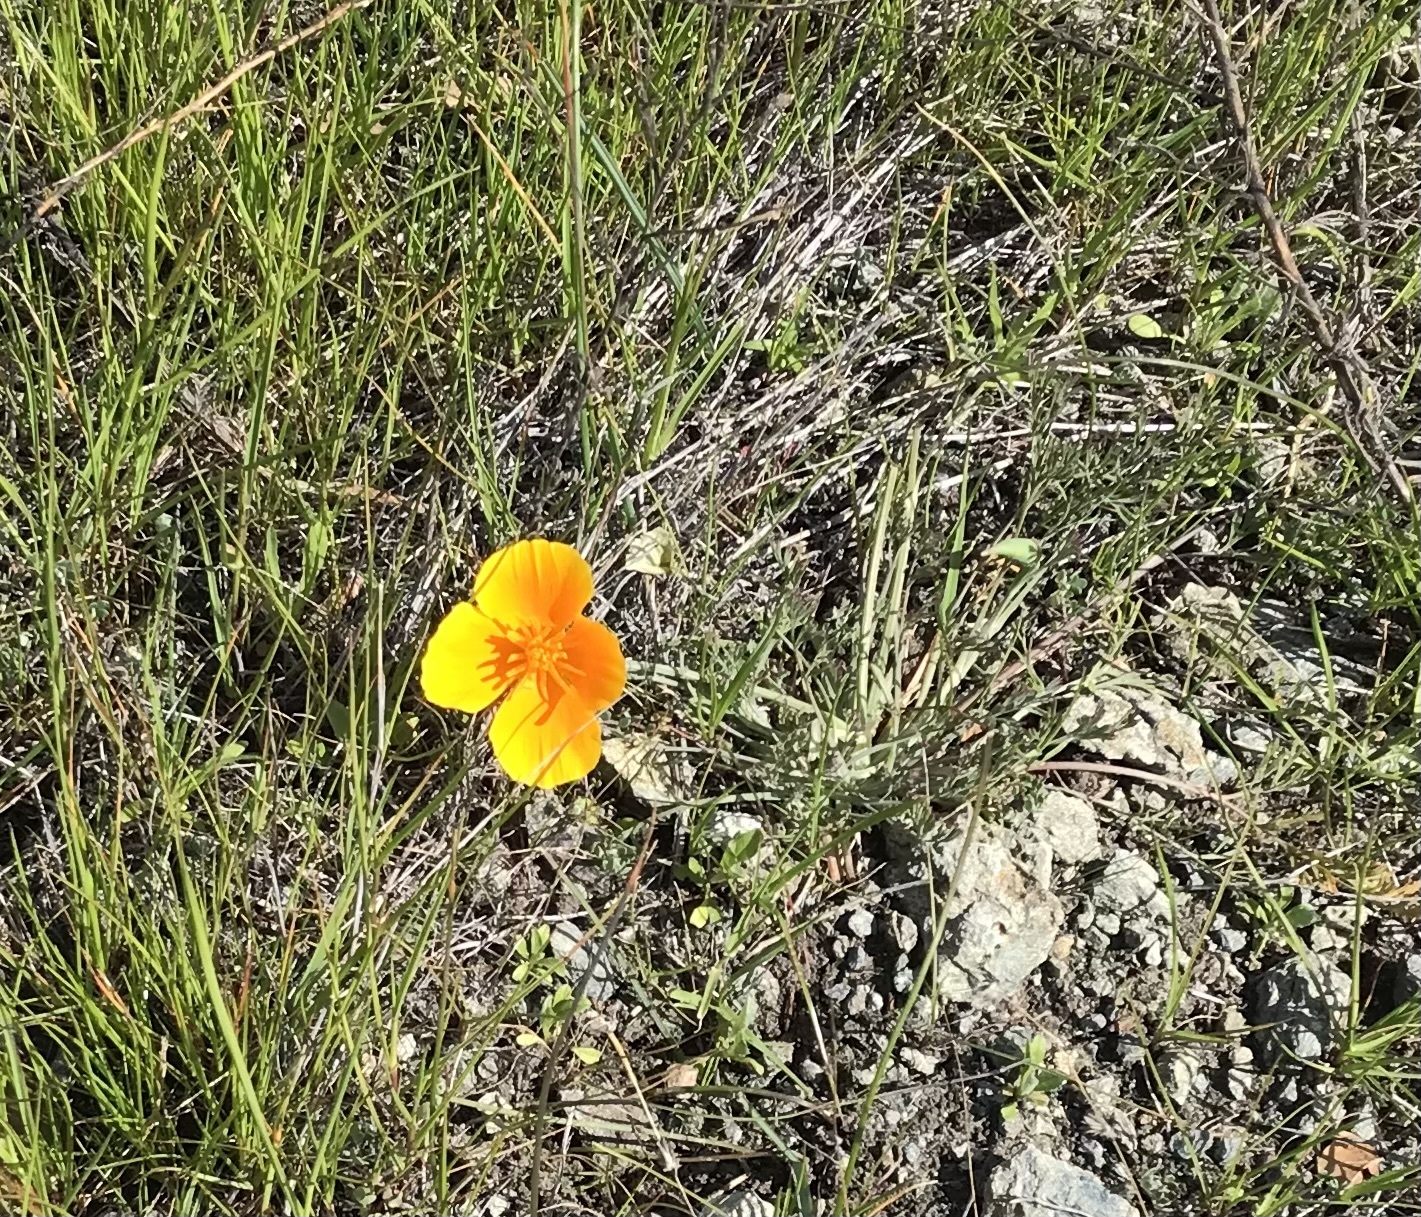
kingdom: Plantae
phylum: Tracheophyta
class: Magnoliopsida
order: Ranunculales
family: Papaveraceae
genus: Eschscholzia
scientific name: Eschscholzia californica
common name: California poppy
